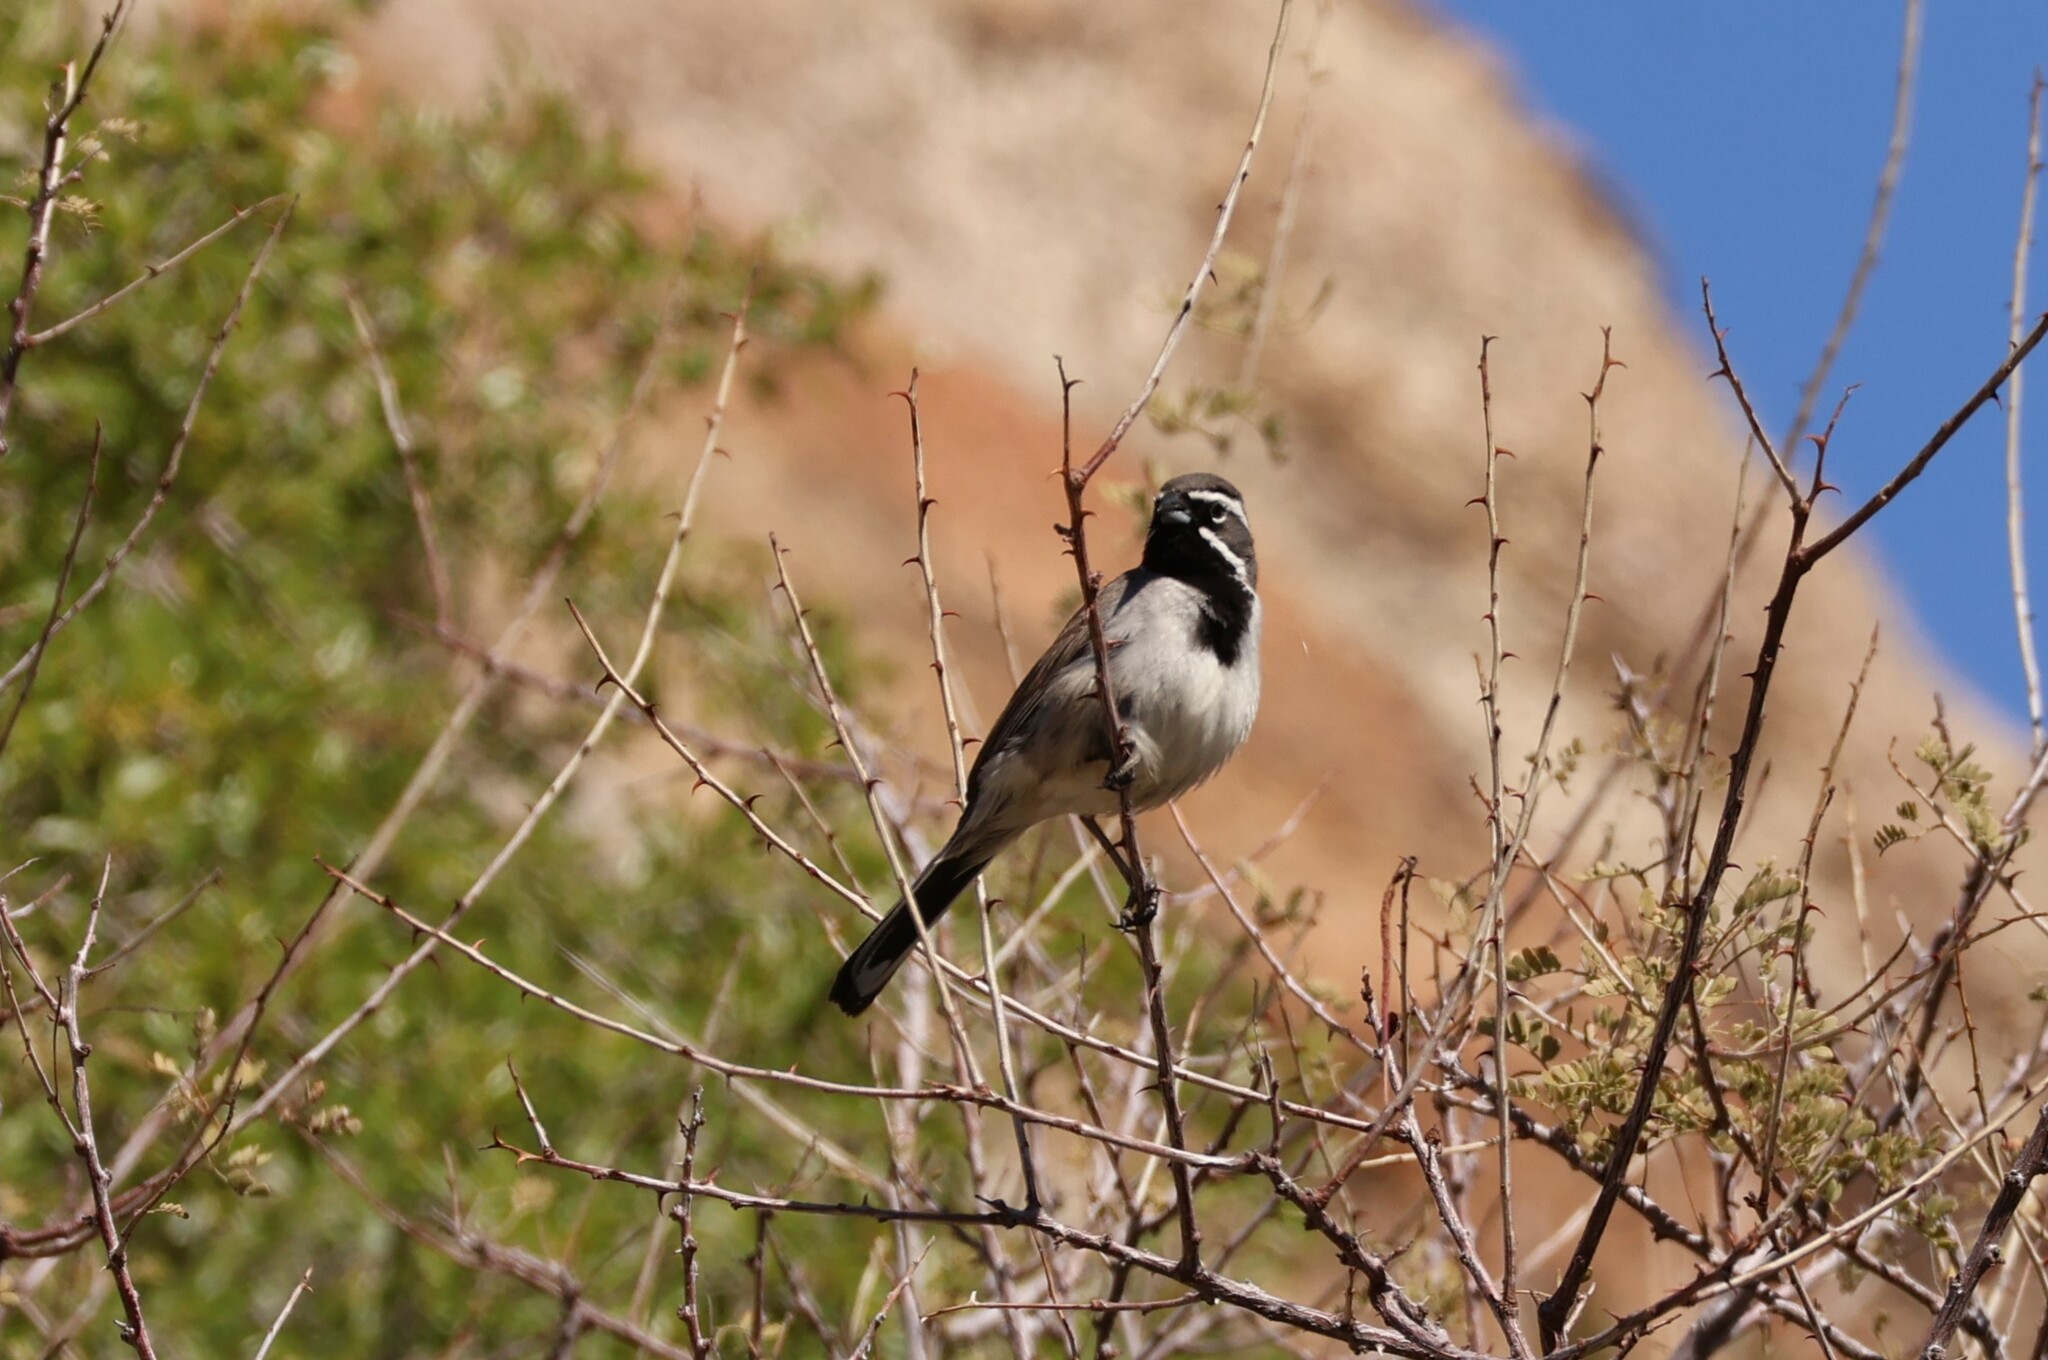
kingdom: Animalia
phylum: Chordata
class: Aves
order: Passeriformes
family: Passerellidae
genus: Amphispiza
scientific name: Amphispiza bilineata
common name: Black-throated sparrow
